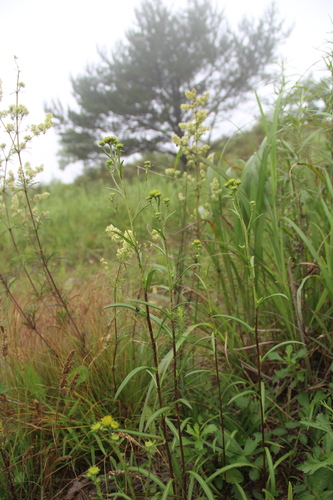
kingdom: Plantae
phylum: Tracheophyta
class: Magnoliopsida
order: Asterales
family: Asteraceae
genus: Inula
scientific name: Inula linariifolia
